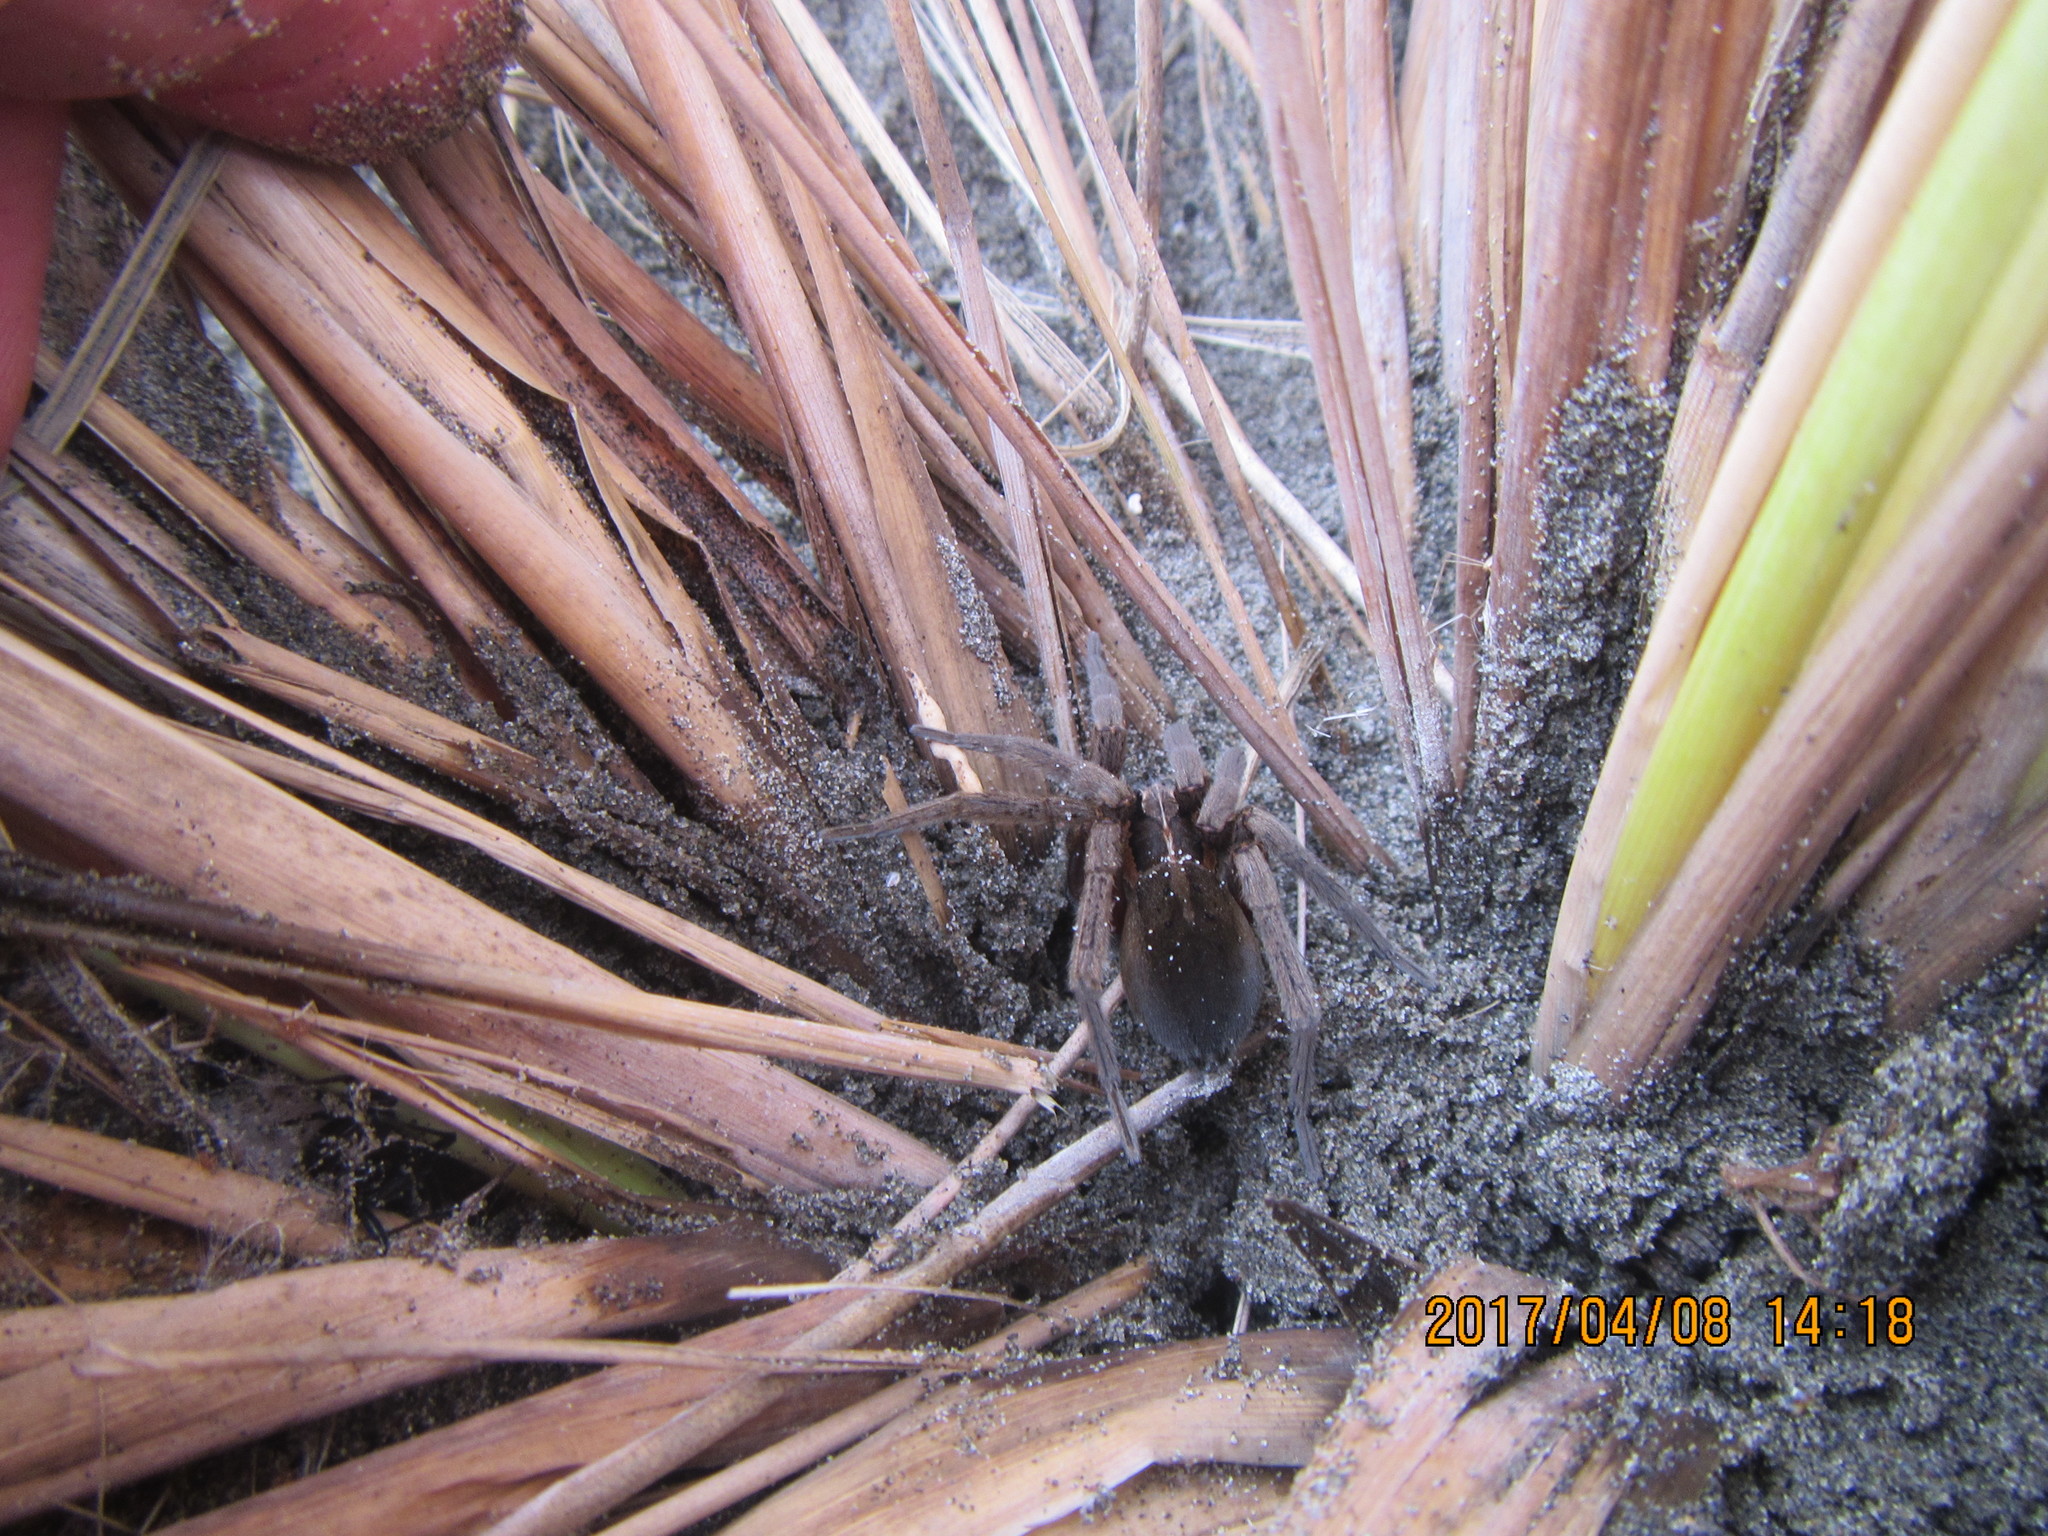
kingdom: Animalia
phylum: Arthropoda
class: Arachnida
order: Araneae
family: Pisauridae
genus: Dolomedes
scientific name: Dolomedes minor
